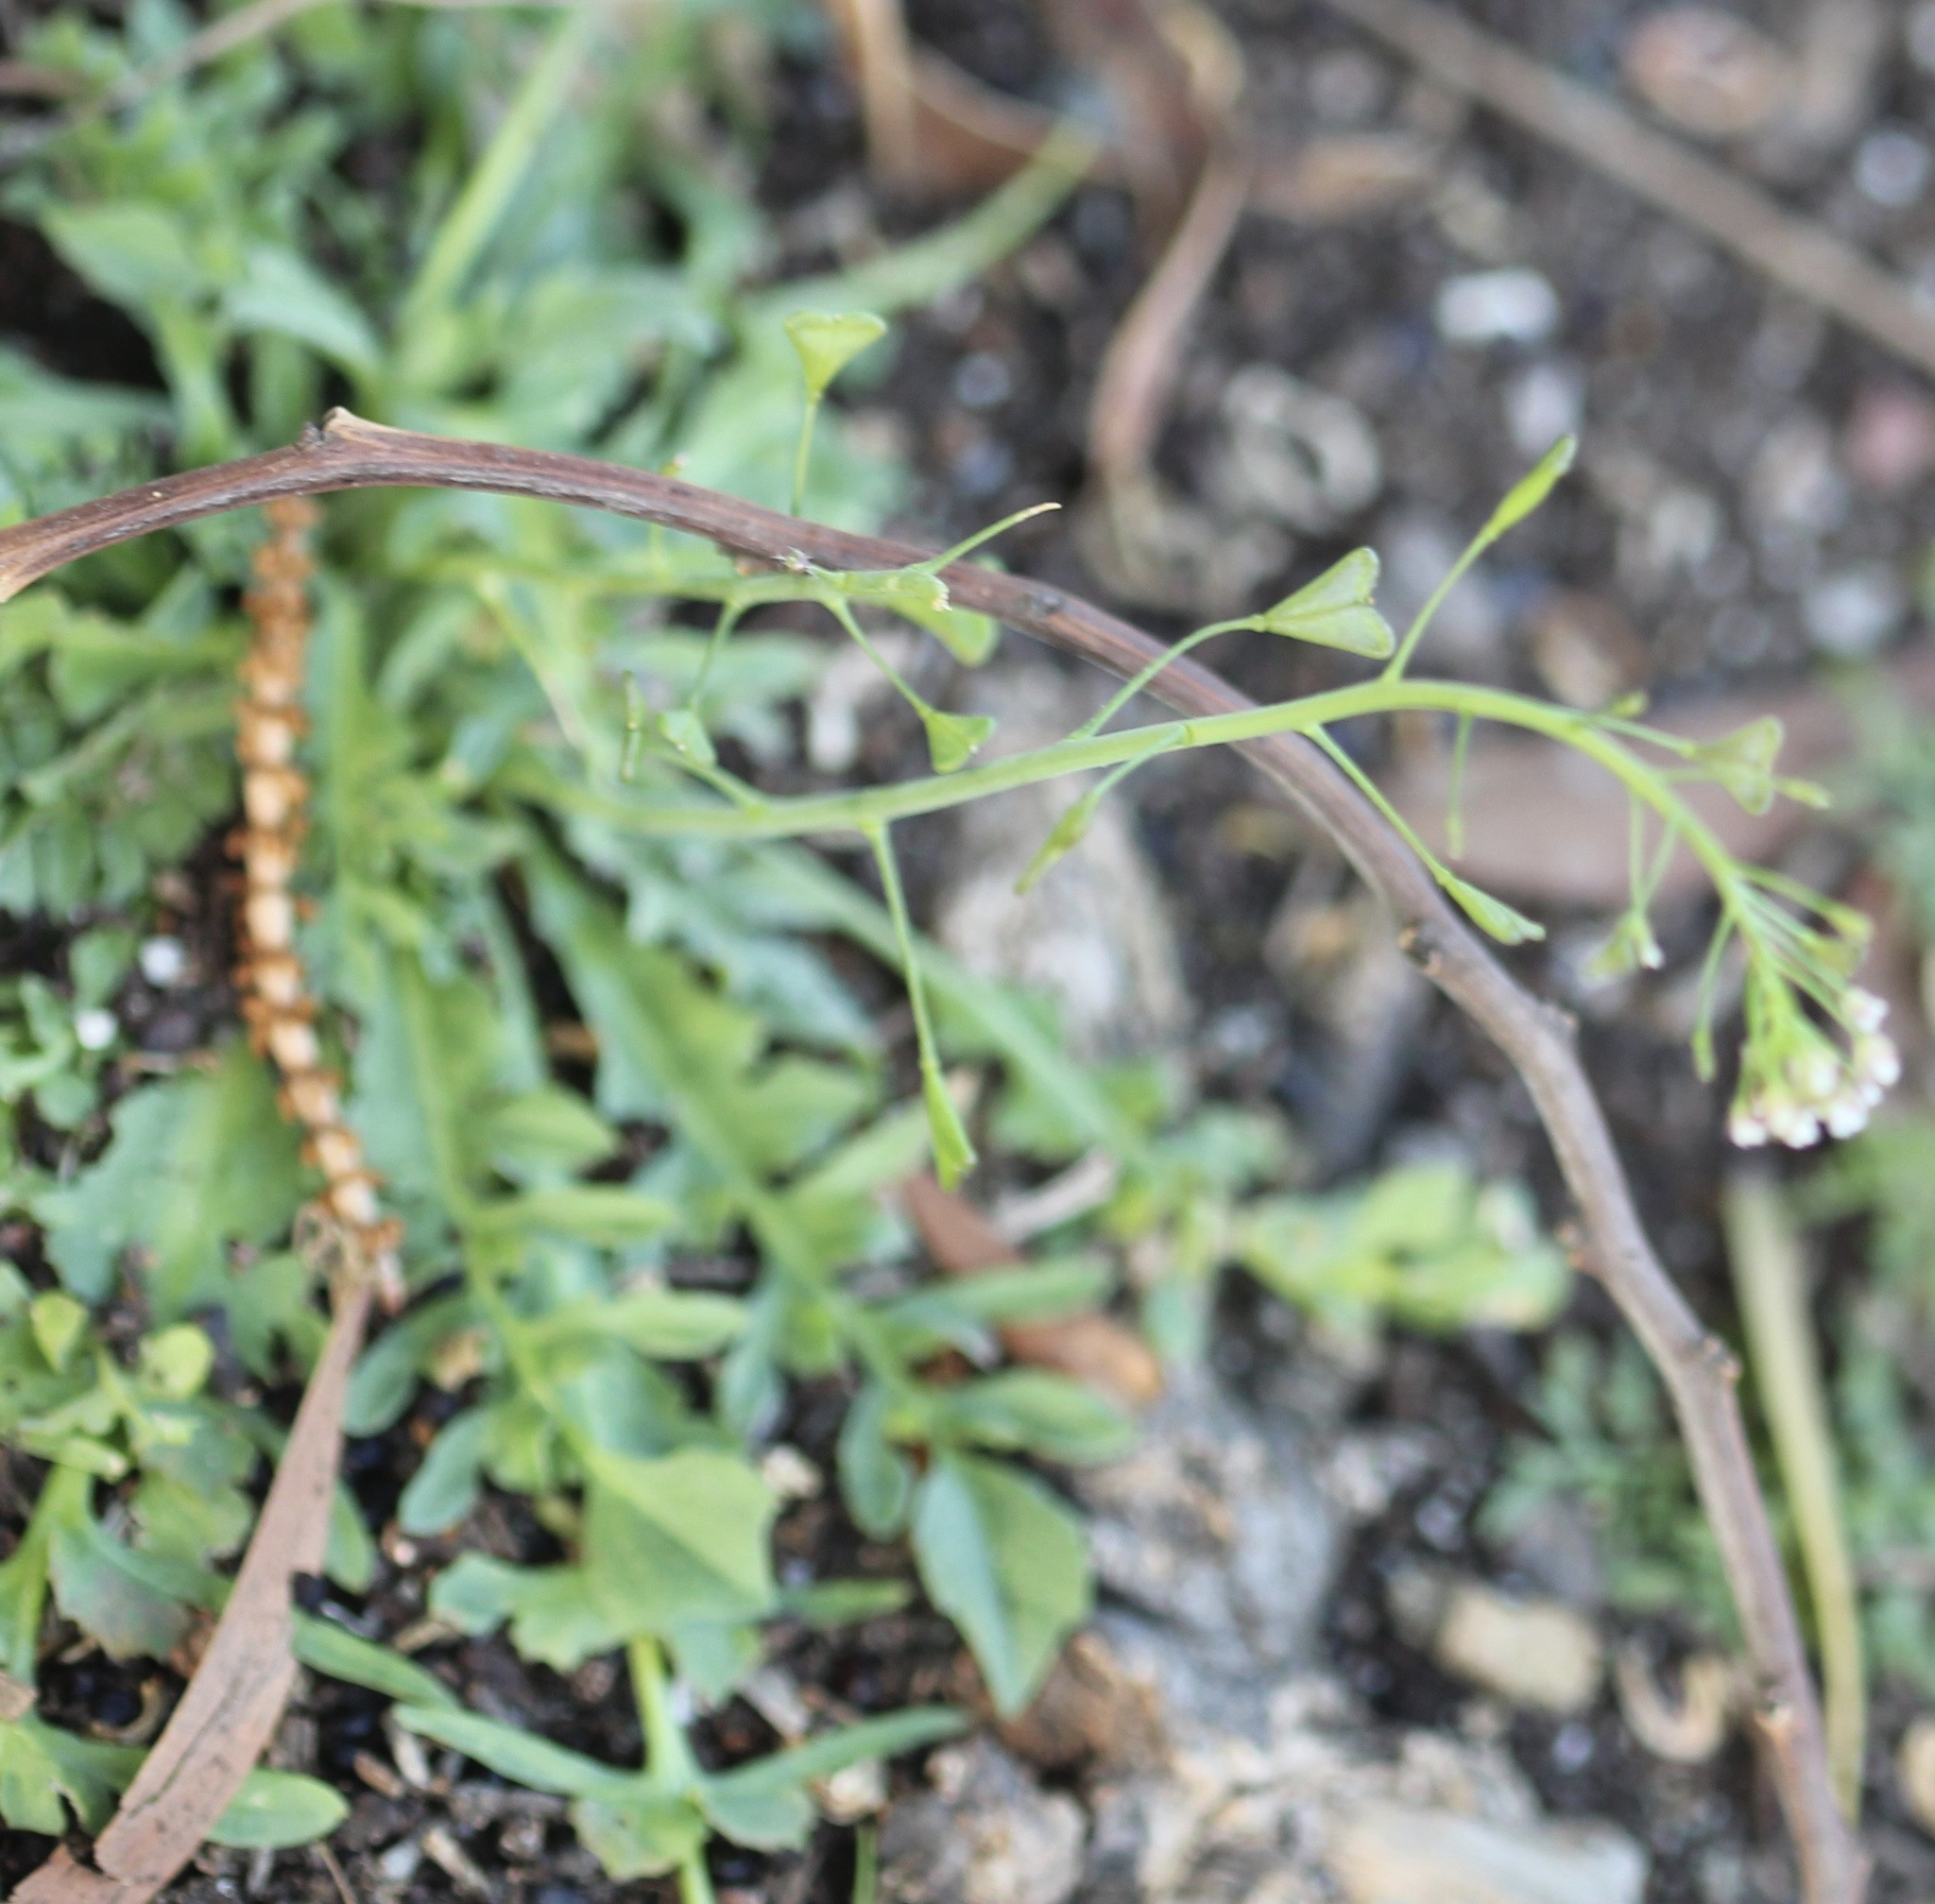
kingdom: Plantae
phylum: Tracheophyta
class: Magnoliopsida
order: Brassicales
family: Brassicaceae
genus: Capsella
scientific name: Capsella bursa-pastoris
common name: Shepherd's purse
